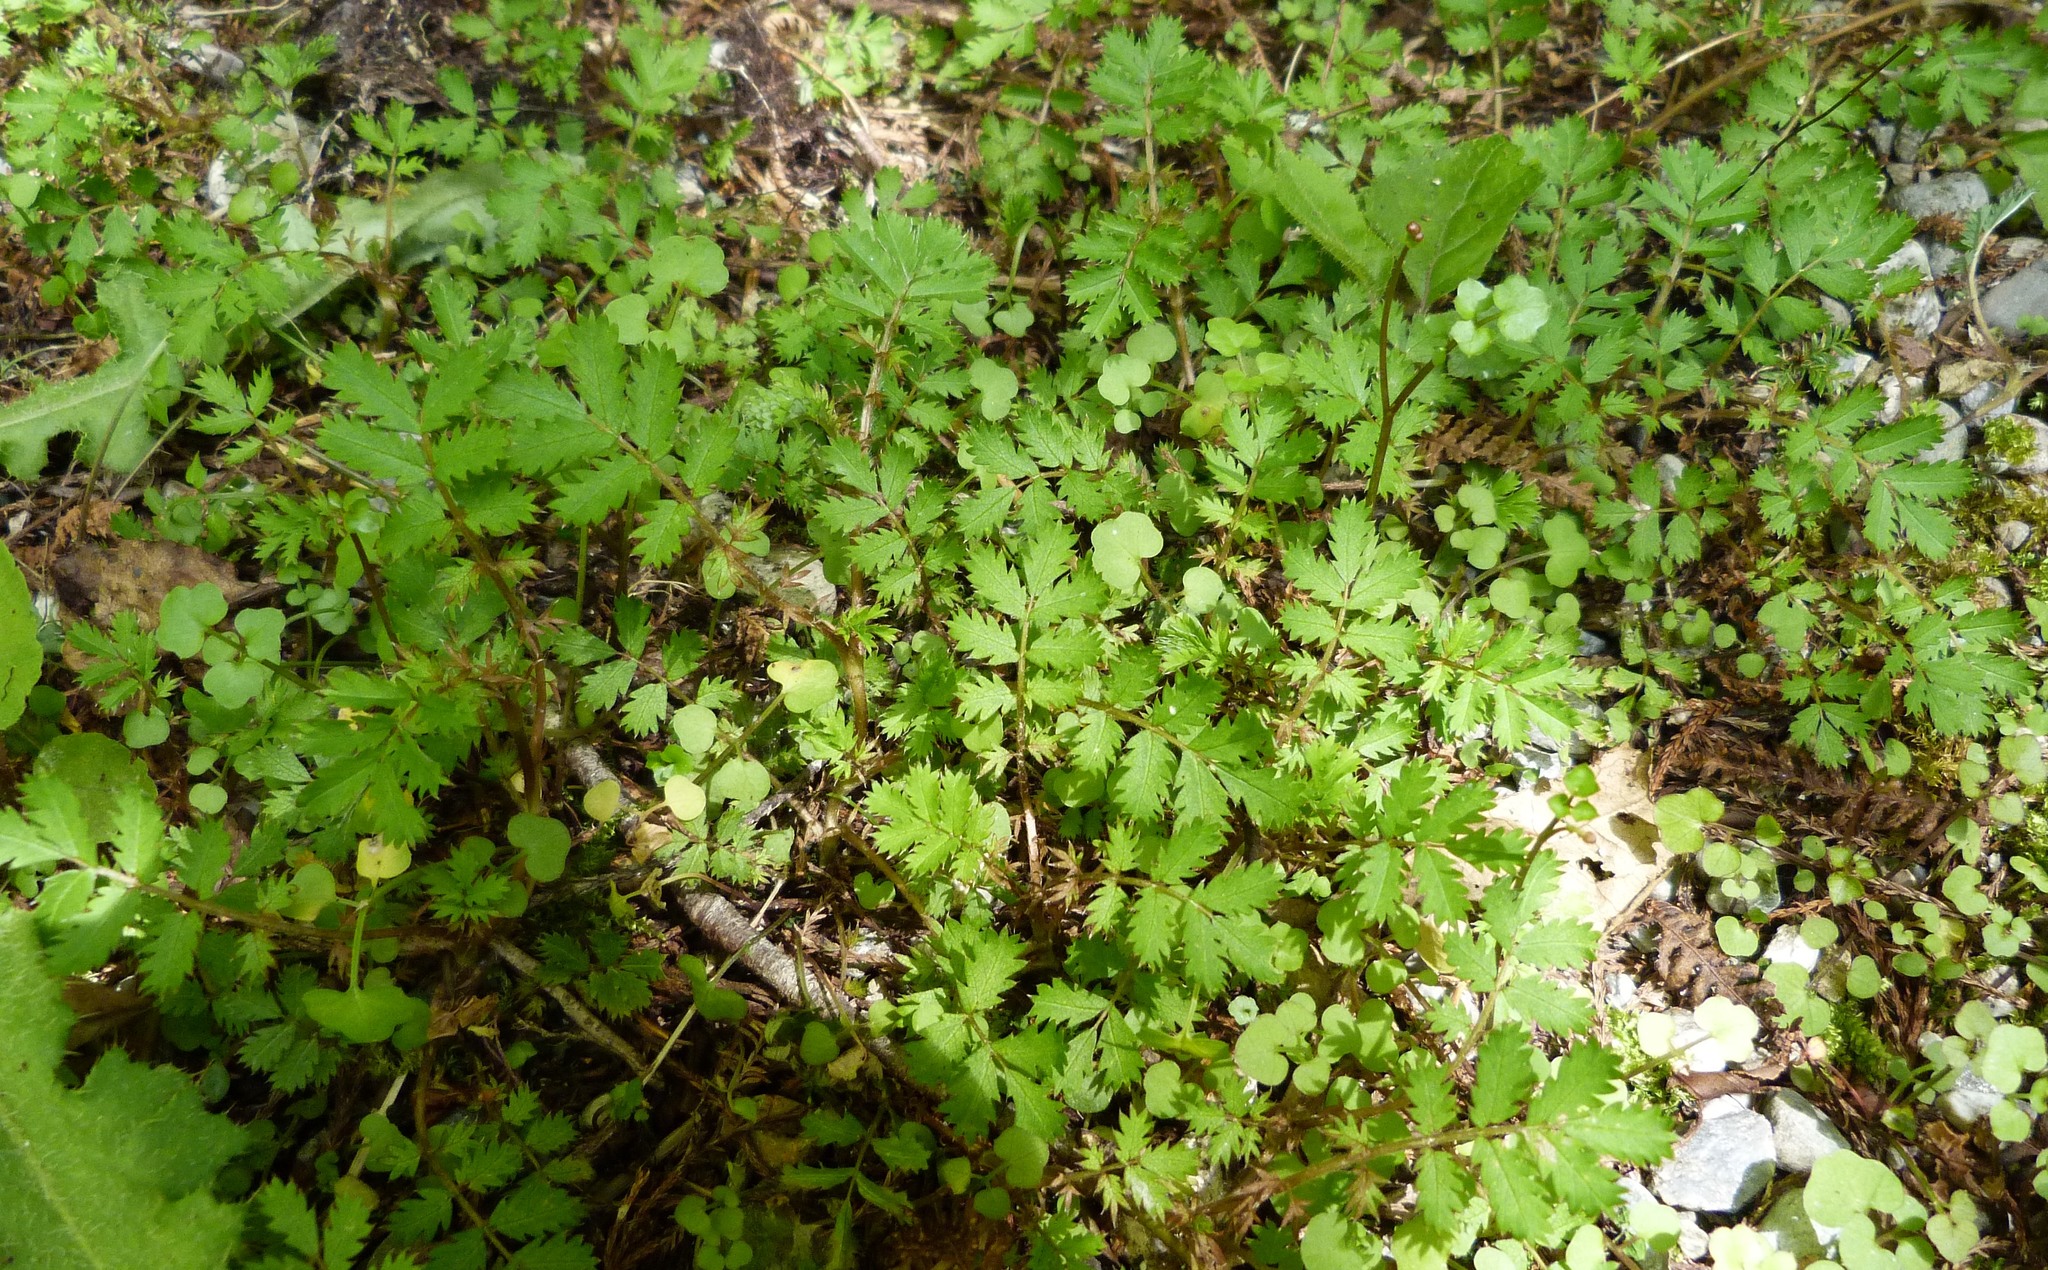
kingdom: Plantae
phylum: Tracheophyta
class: Magnoliopsida
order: Rosales
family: Rosaceae
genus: Acaena
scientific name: Acaena anserinifolia
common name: Bronze pirri-pirri-bur
